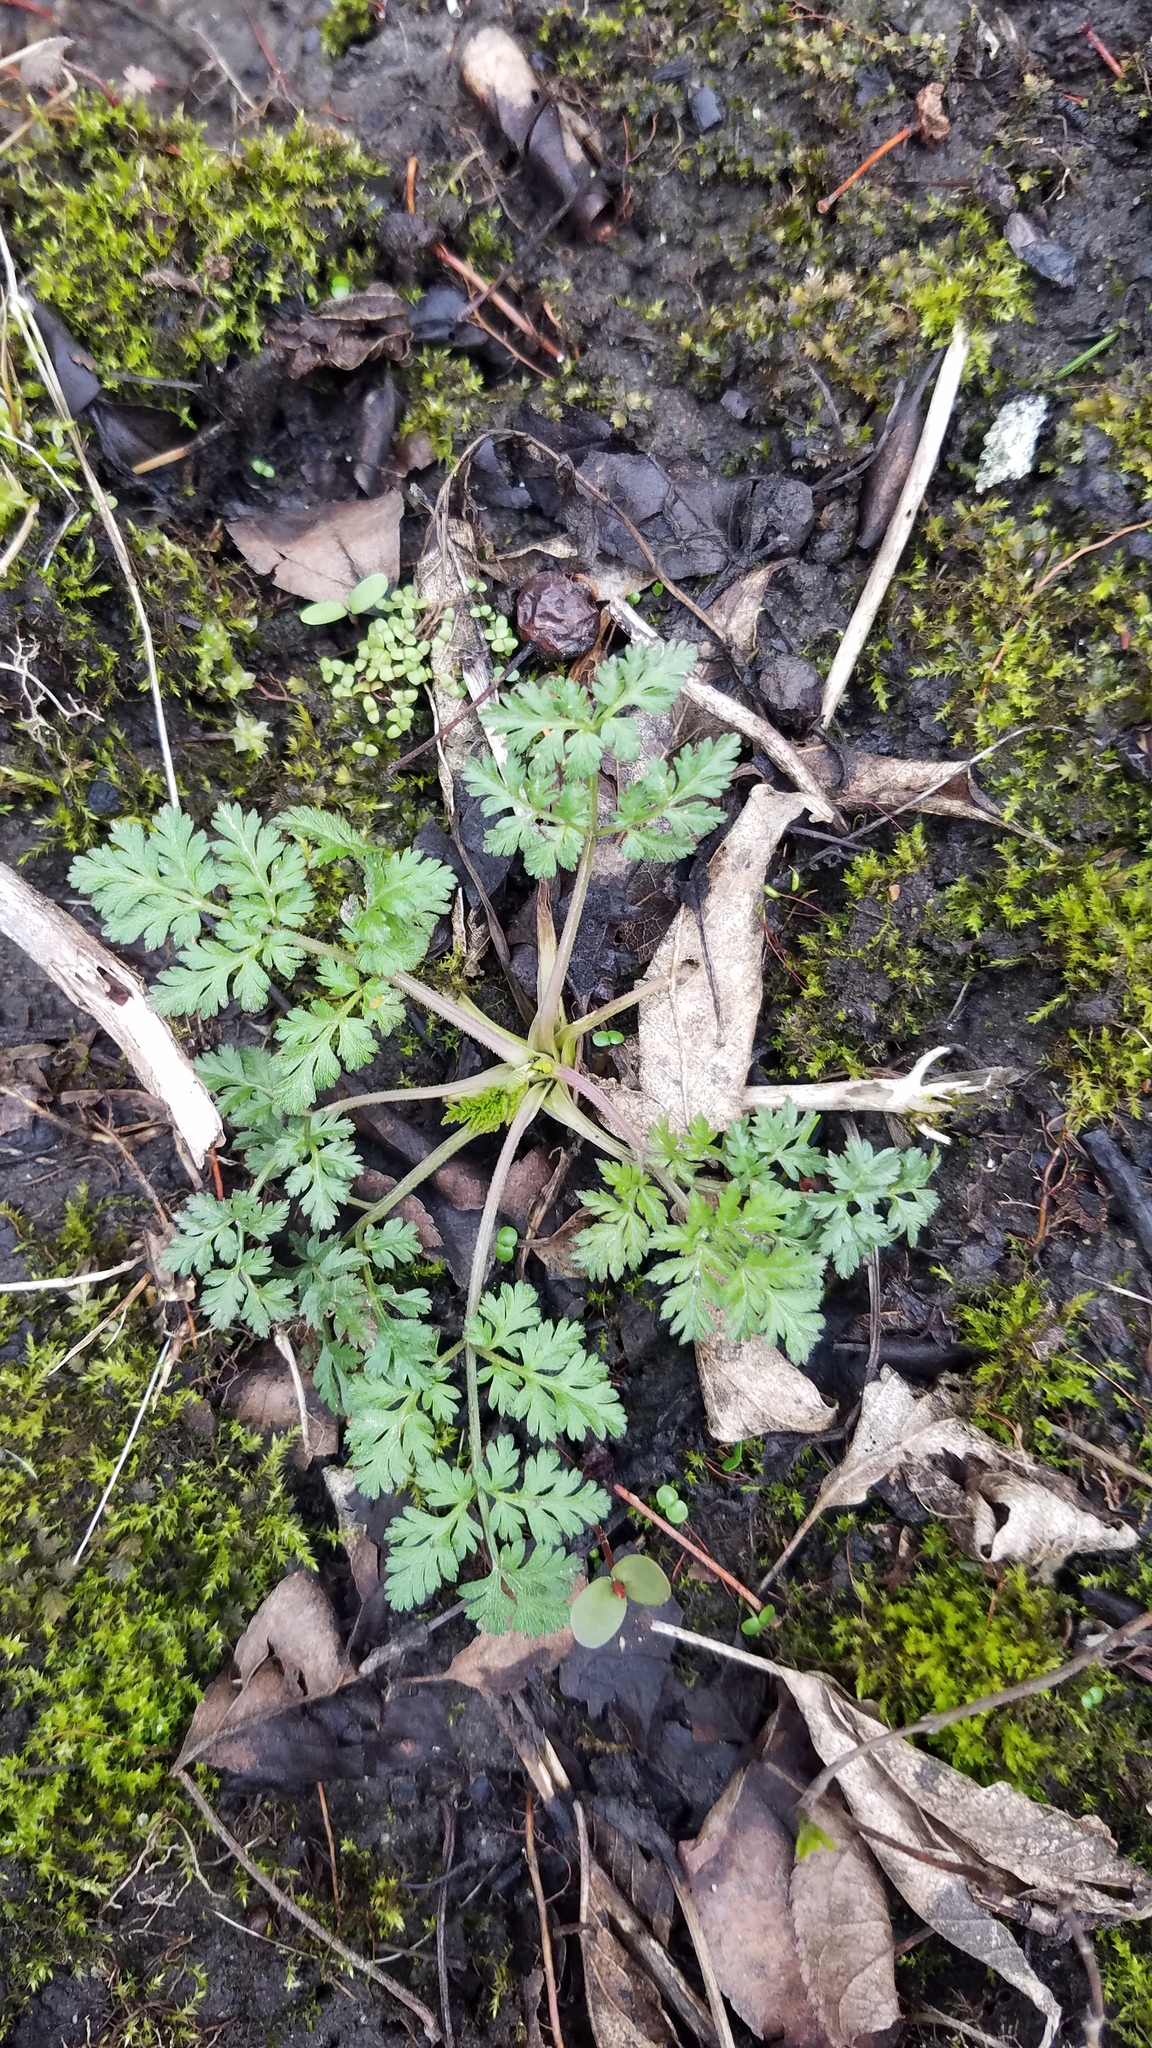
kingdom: Plantae
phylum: Tracheophyta
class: Magnoliopsida
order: Apiales
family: Apiaceae
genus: Daucus
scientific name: Daucus carota
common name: Wild carrot
